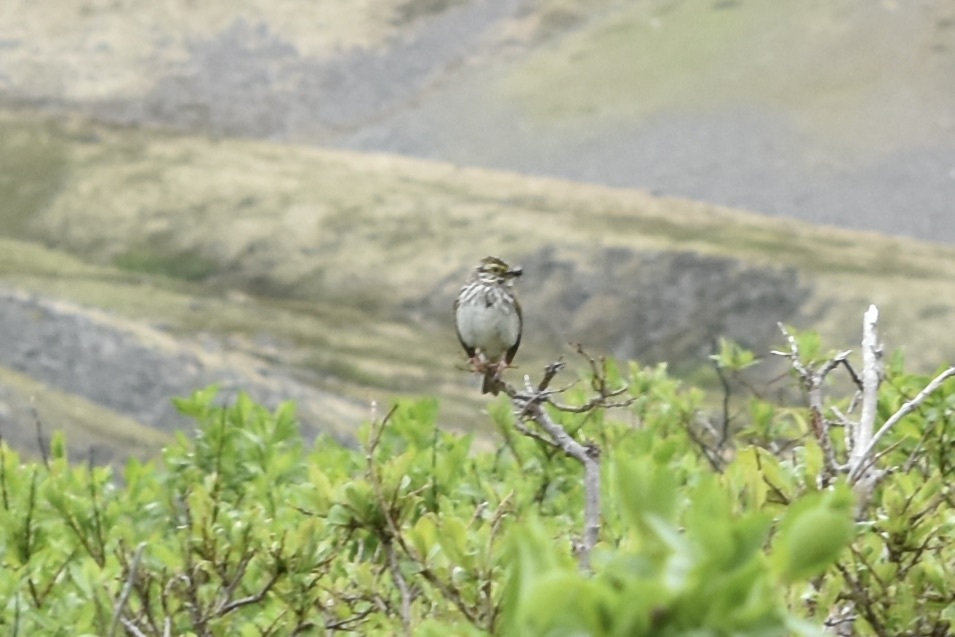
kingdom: Animalia
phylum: Chordata
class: Aves
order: Passeriformes
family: Passerellidae
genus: Passerculus
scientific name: Passerculus sandwichensis
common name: Savannah sparrow
